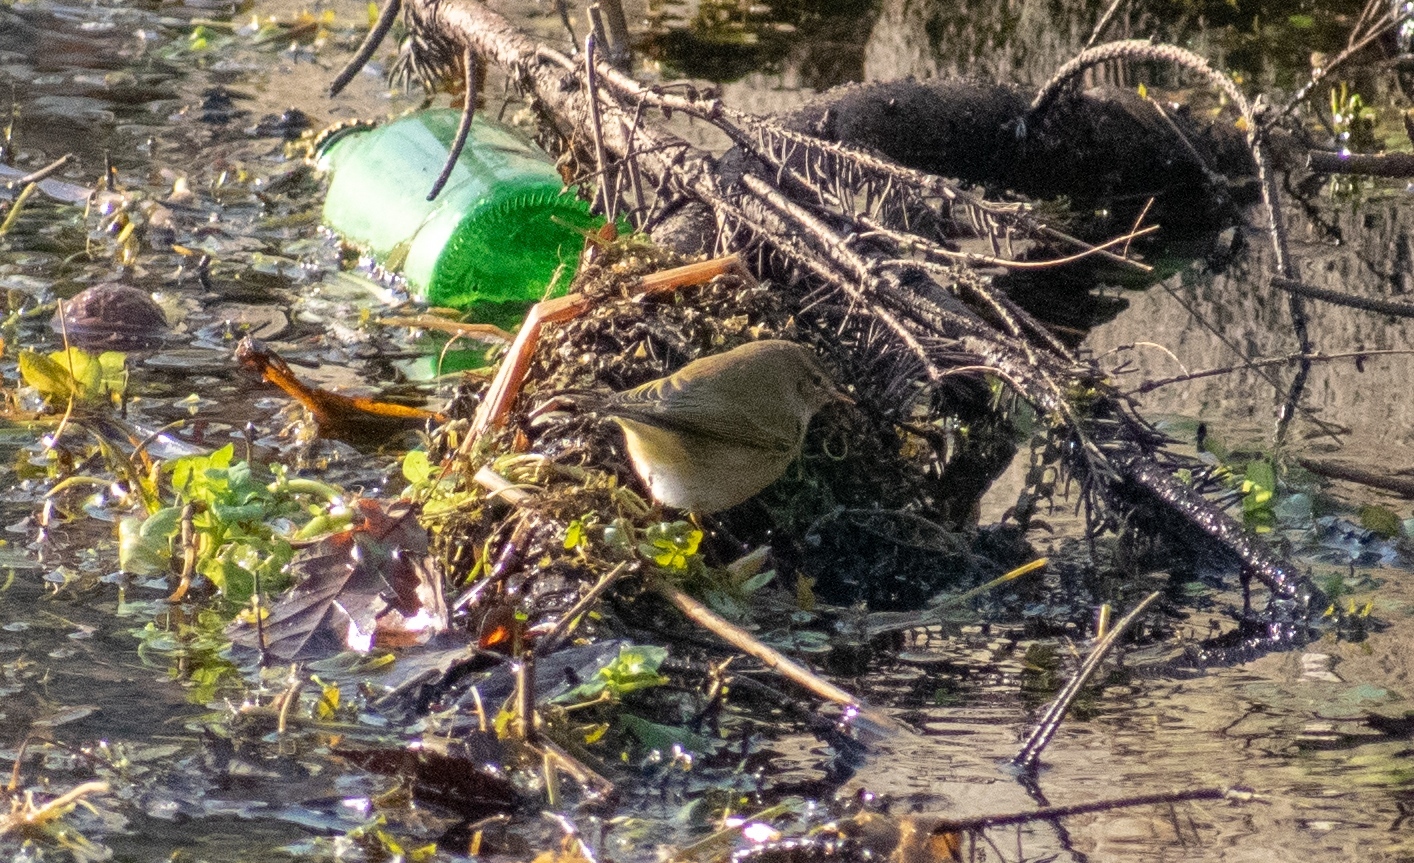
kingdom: Animalia
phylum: Chordata
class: Aves
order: Passeriformes
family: Phylloscopidae
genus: Phylloscopus
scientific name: Phylloscopus collybita
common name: Common chiffchaff
